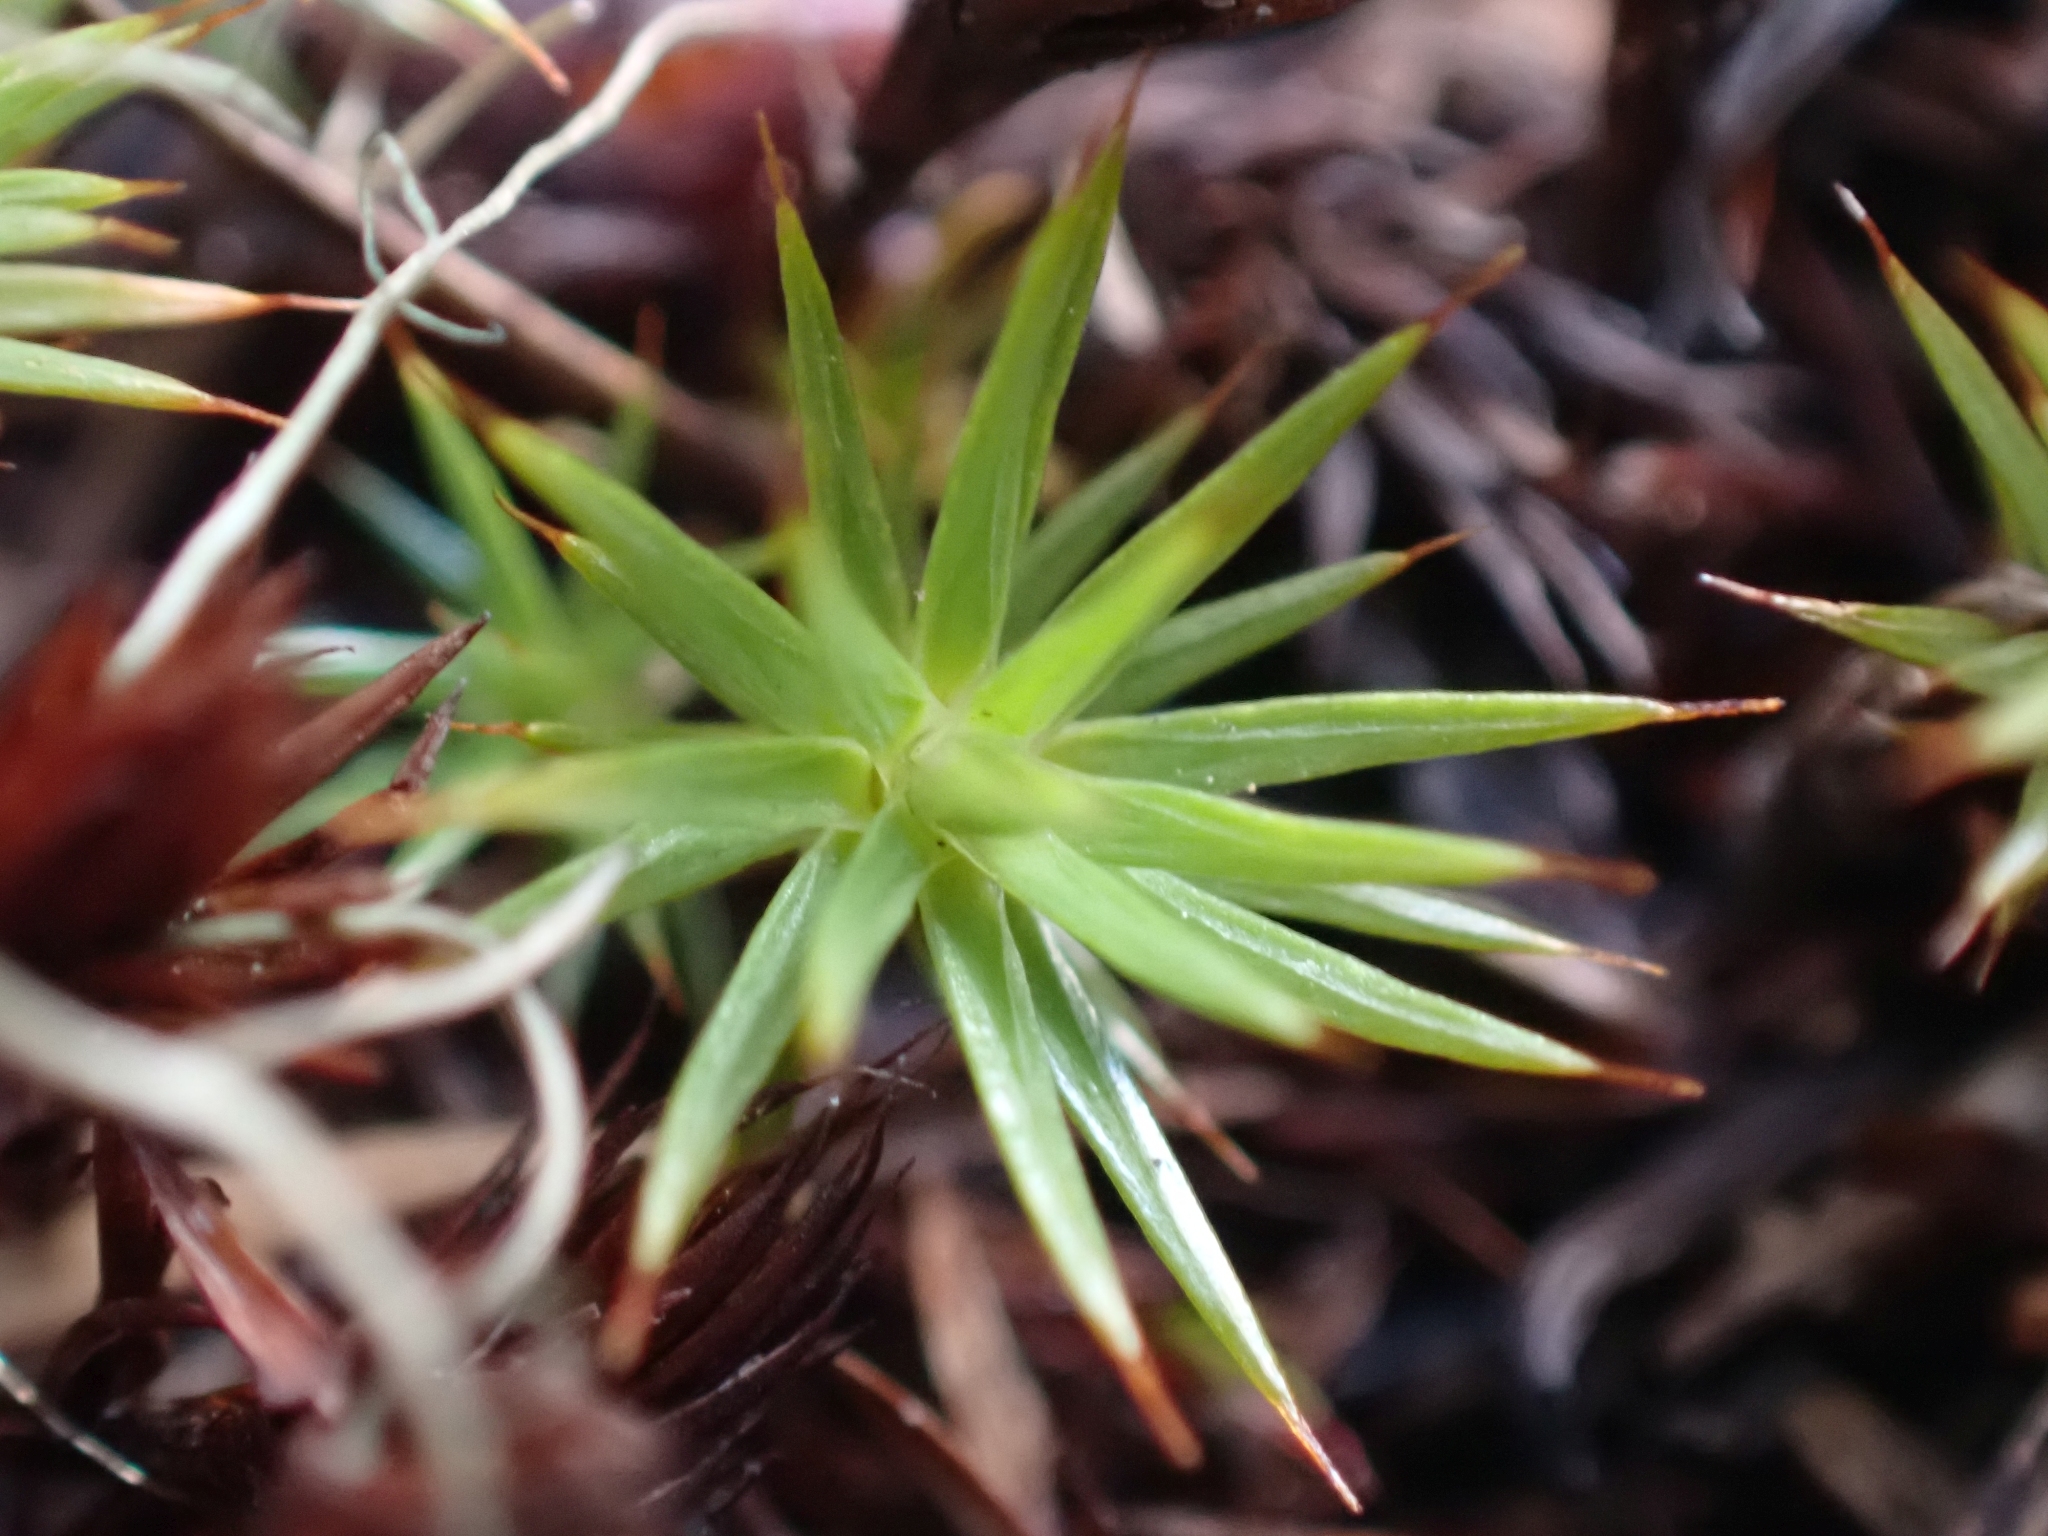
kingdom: Plantae
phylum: Bryophyta
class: Polytrichopsida
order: Polytrichales
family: Polytrichaceae
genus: Polytrichum
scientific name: Polytrichum juniperinum
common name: Juniper haircap moss
